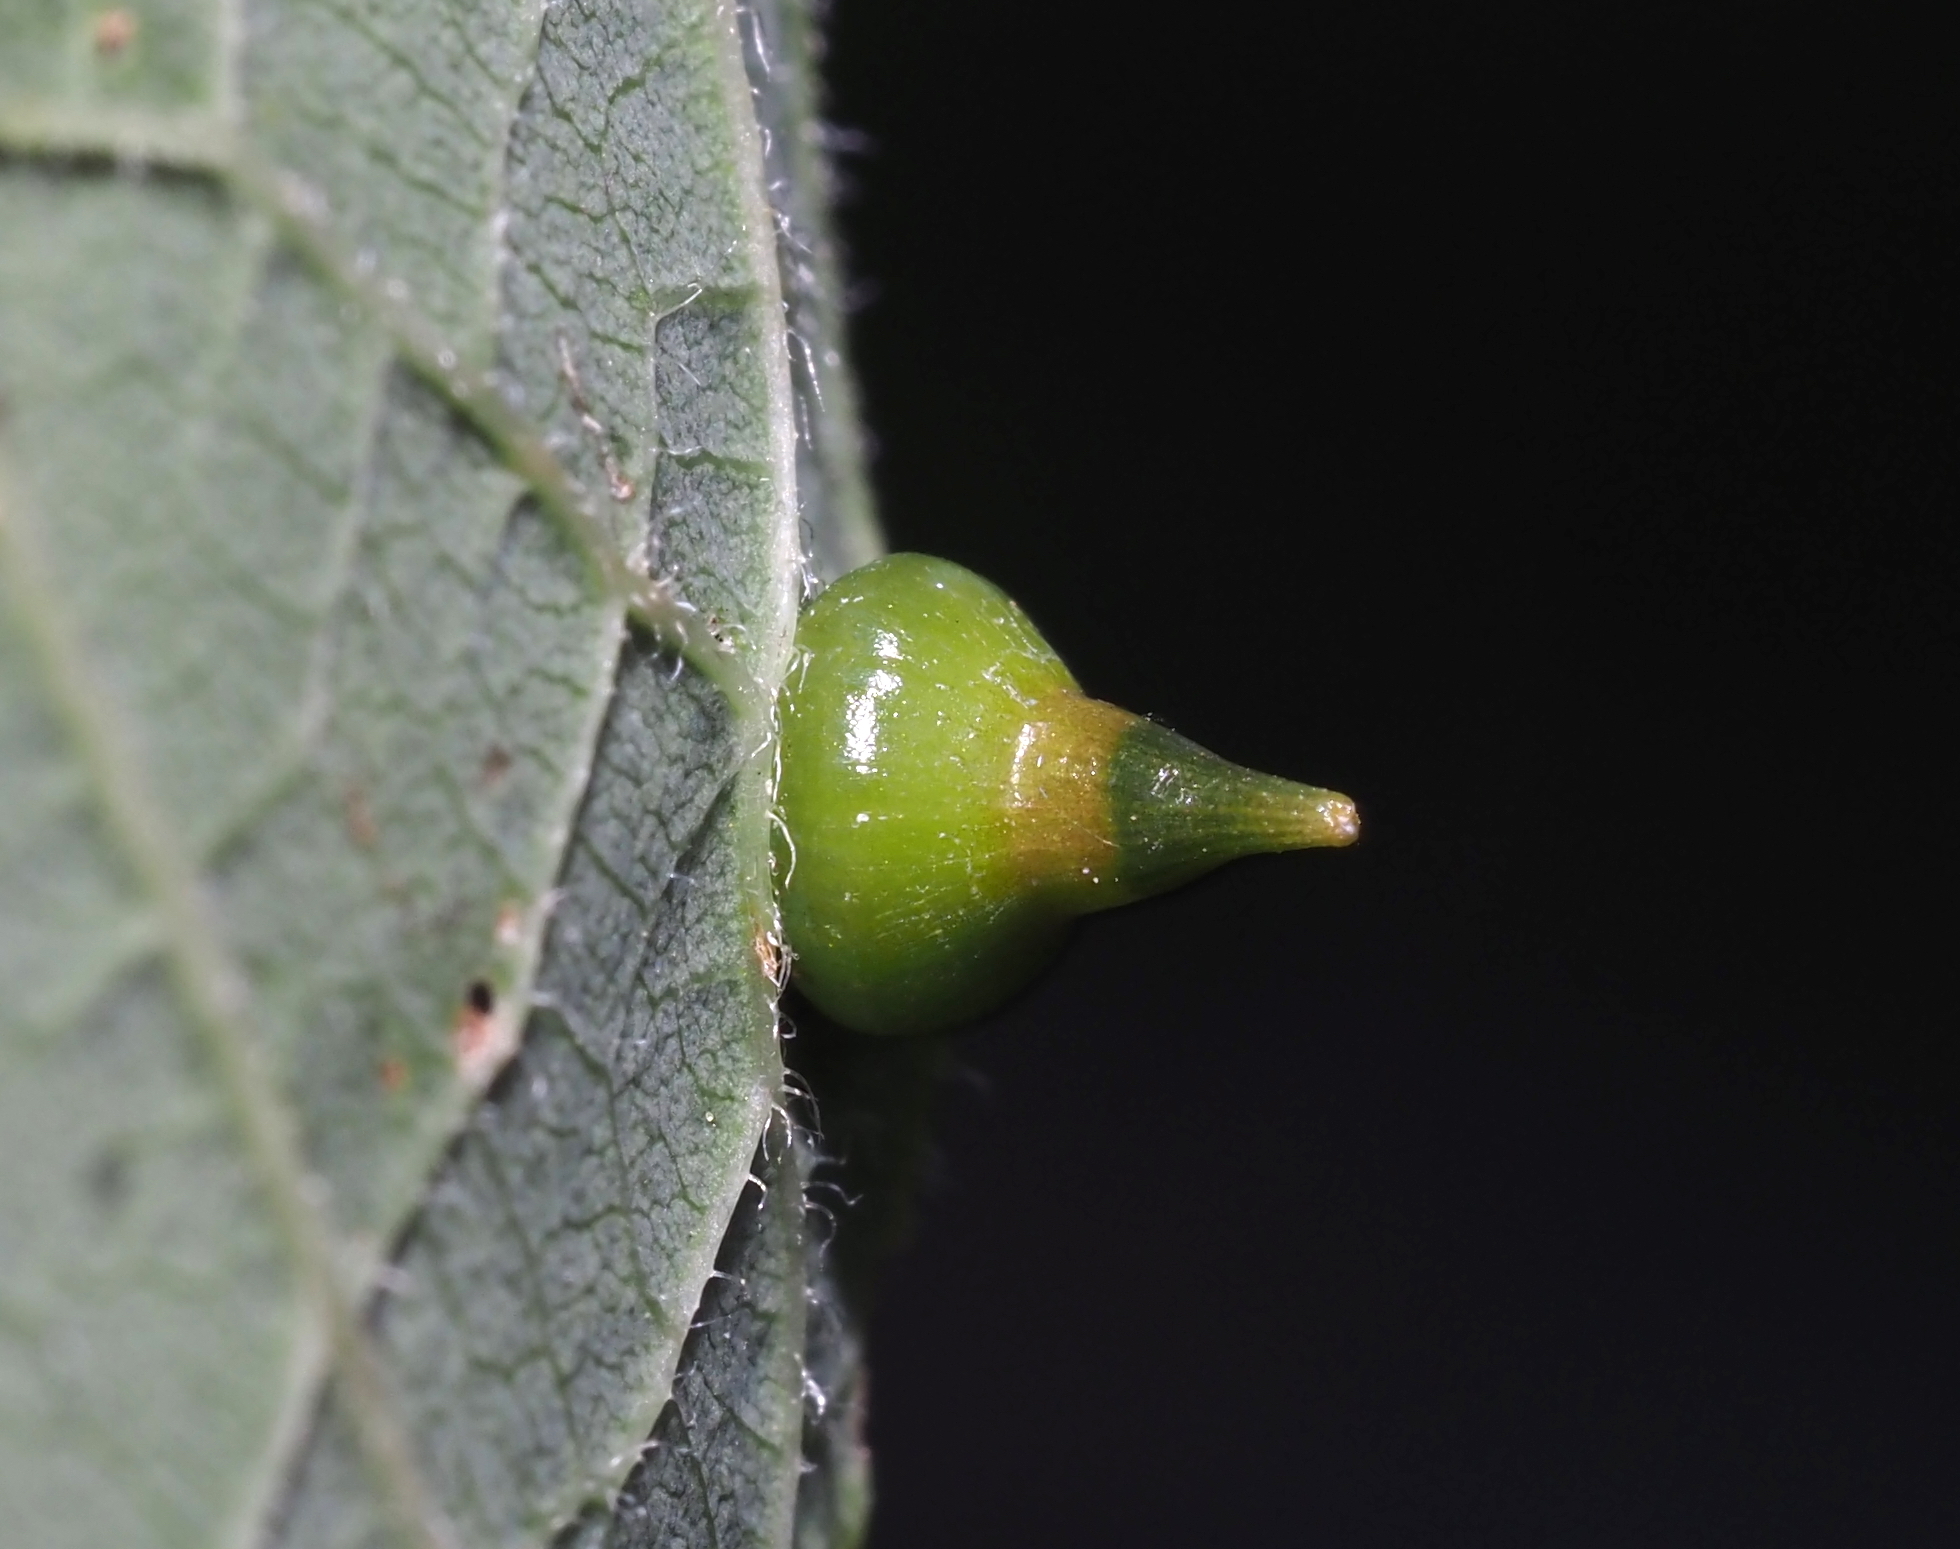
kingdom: Animalia
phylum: Arthropoda
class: Insecta
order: Diptera
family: Cecidomyiidae
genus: Celticecis
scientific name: Celticecis spiniformis
